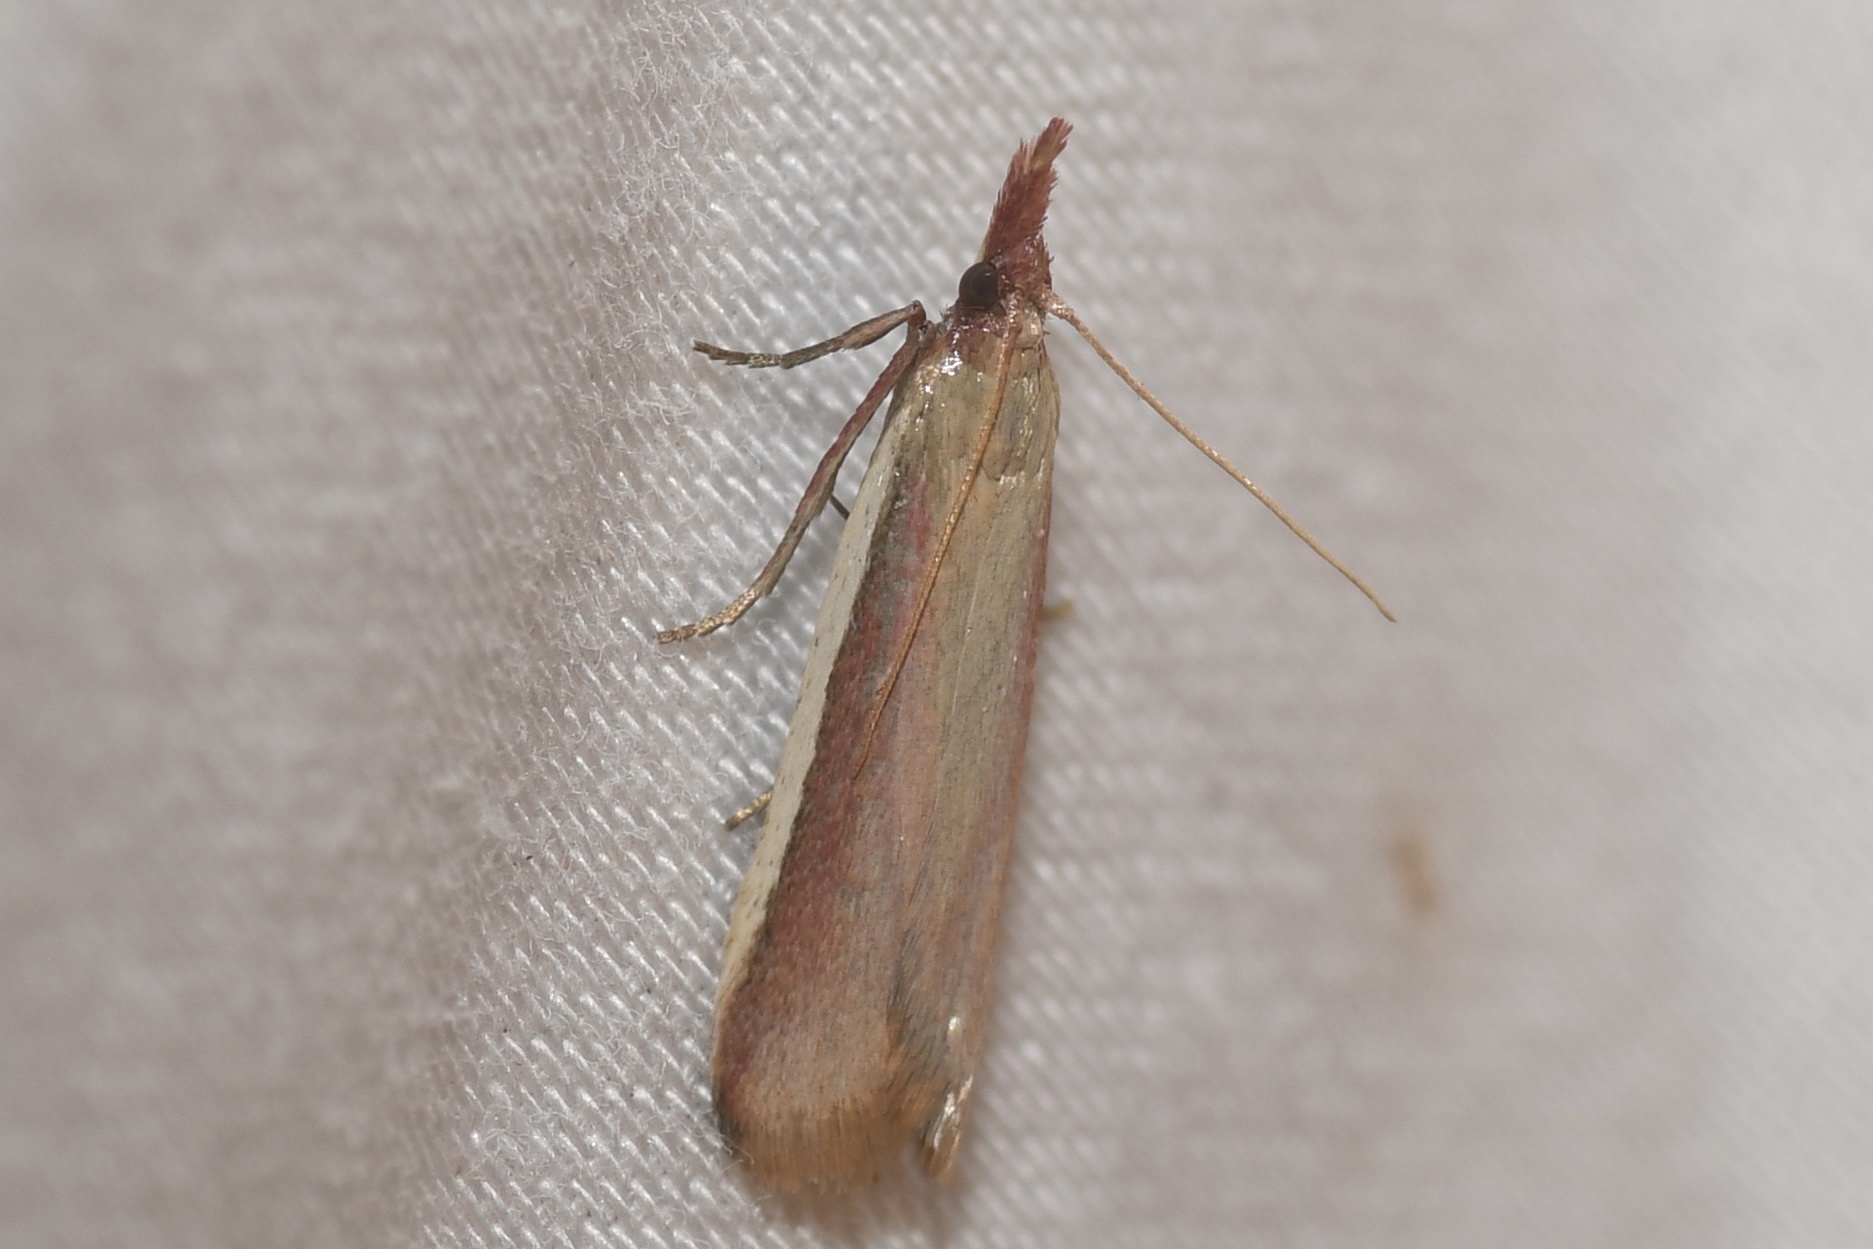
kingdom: Animalia
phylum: Arthropoda
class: Insecta
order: Lepidoptera
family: Pyralidae
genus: Peoria
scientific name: Peoria approximella
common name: Carmine snout
